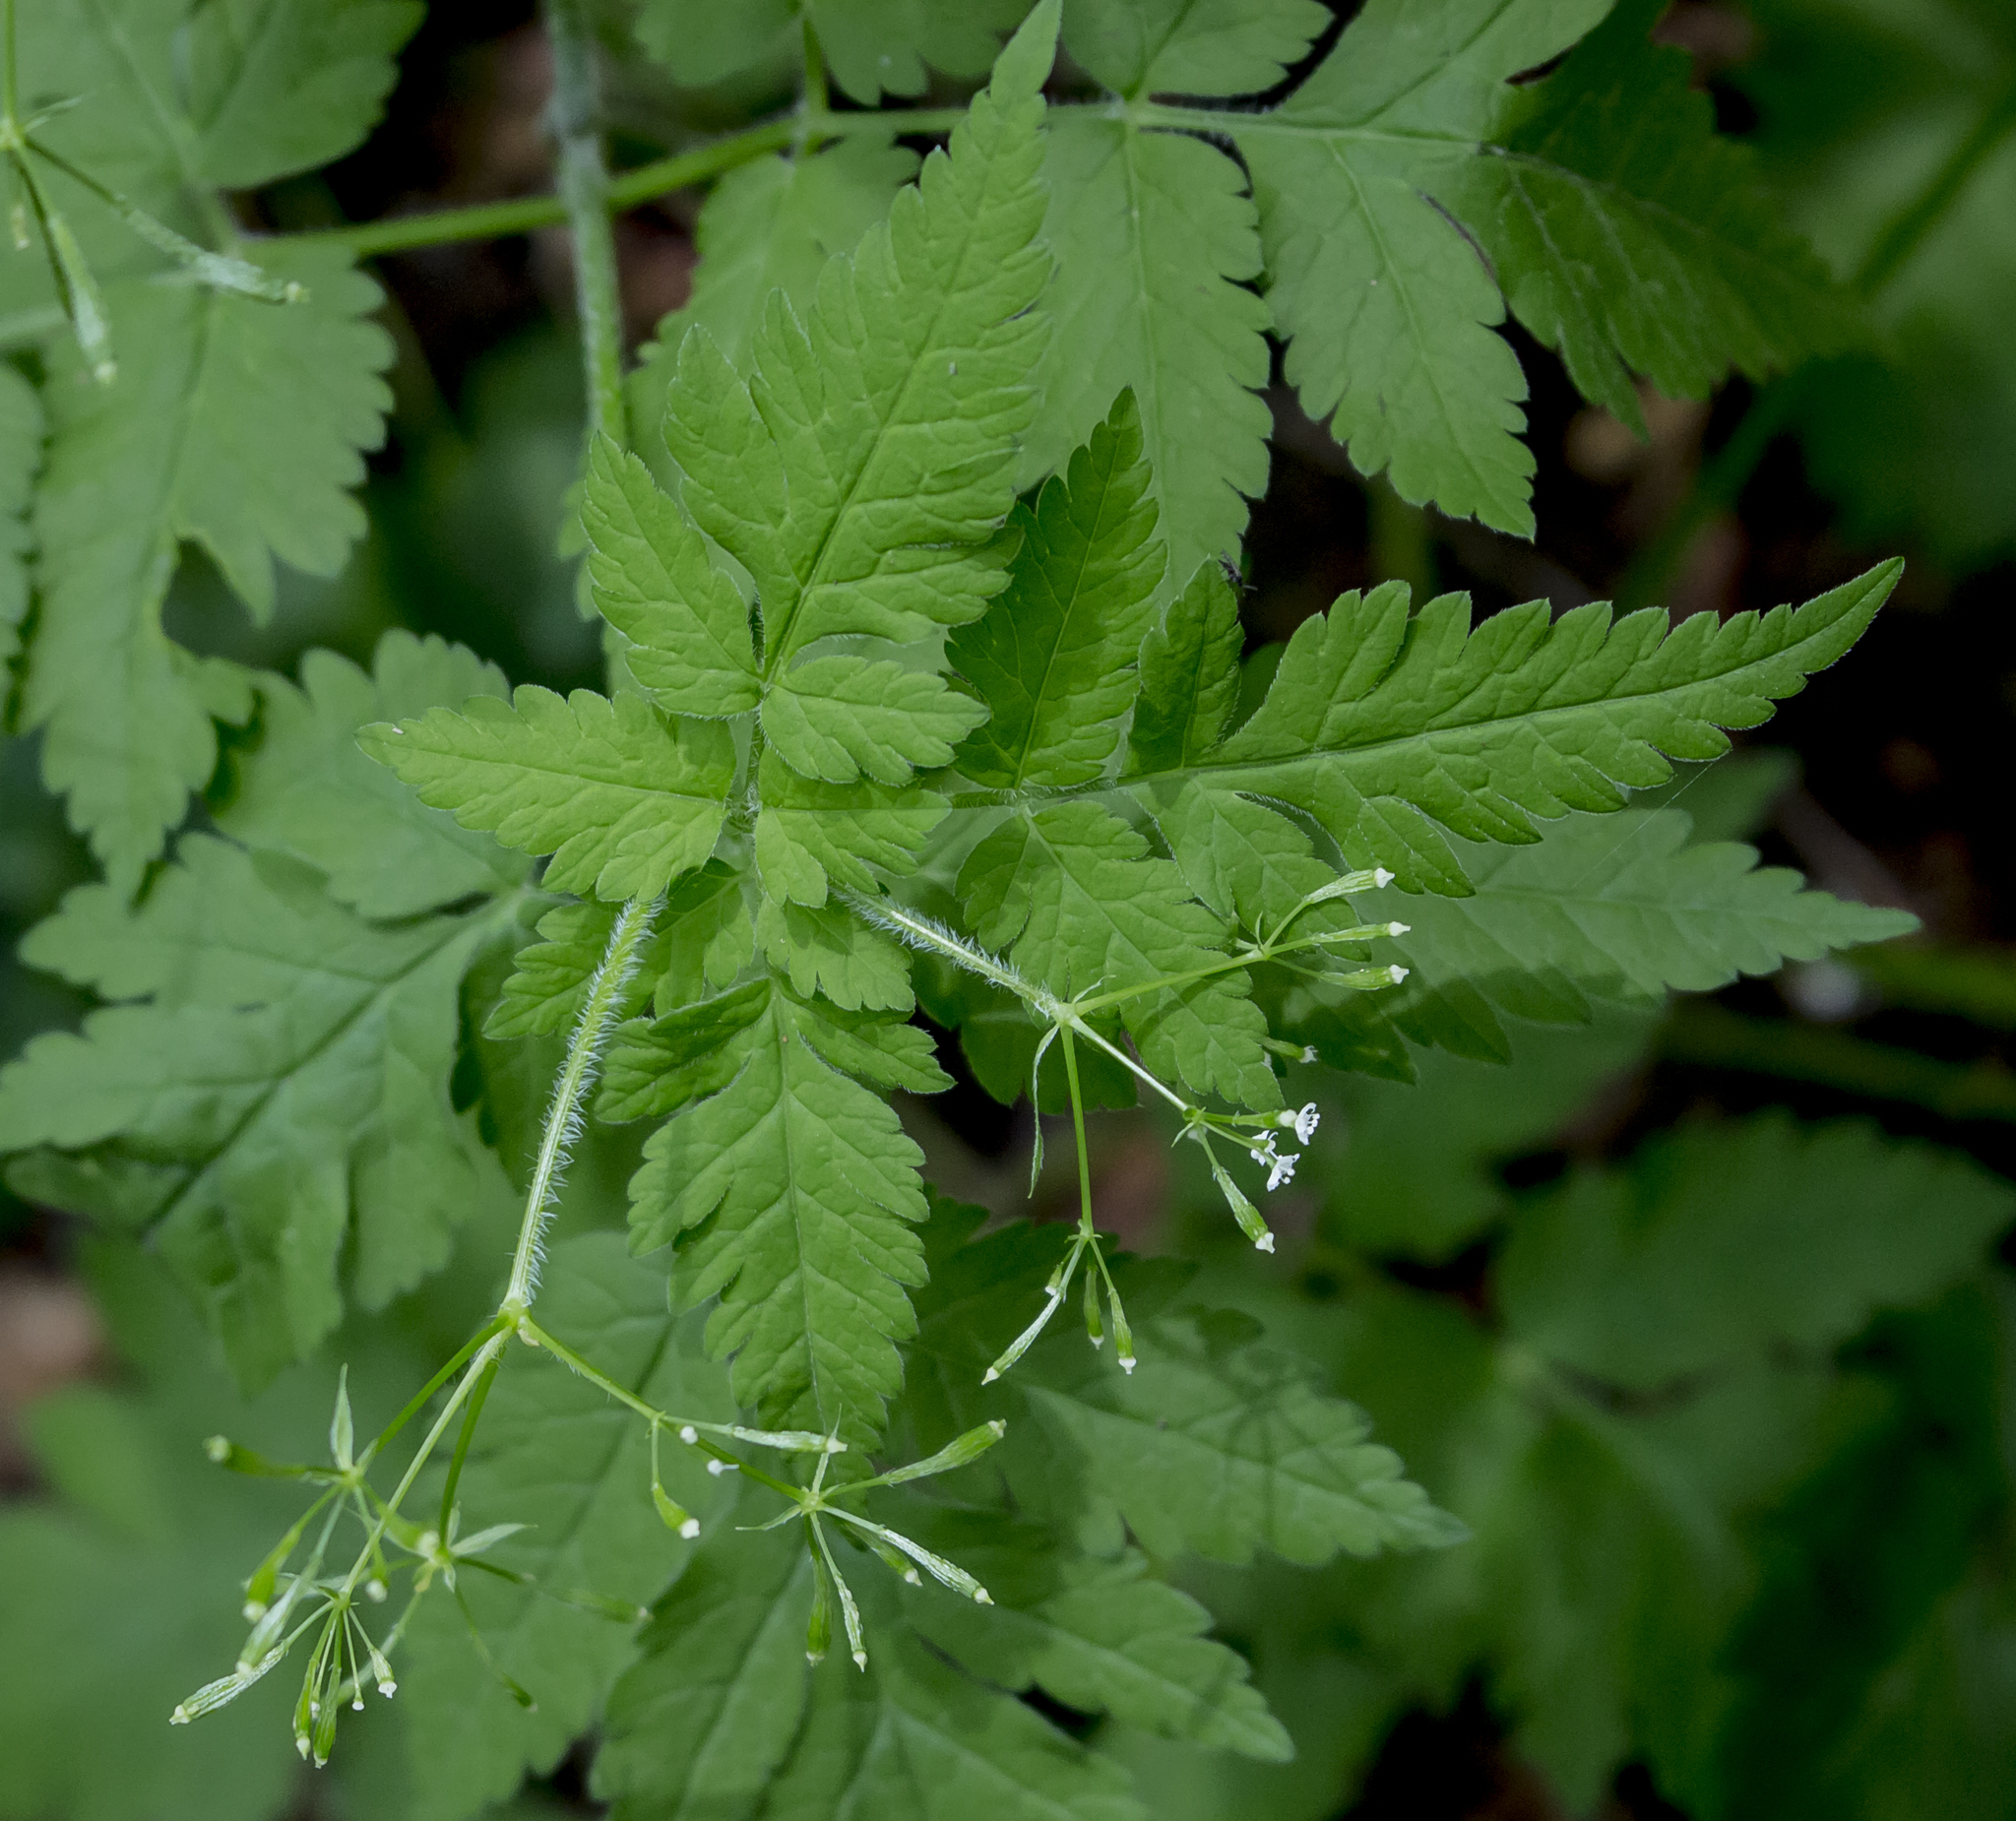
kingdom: Plantae
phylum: Tracheophyta
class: Magnoliopsida
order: Apiales
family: Apiaceae
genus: Osmorhiza
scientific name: Osmorhiza claytonii
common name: Hairy sweet cicely
